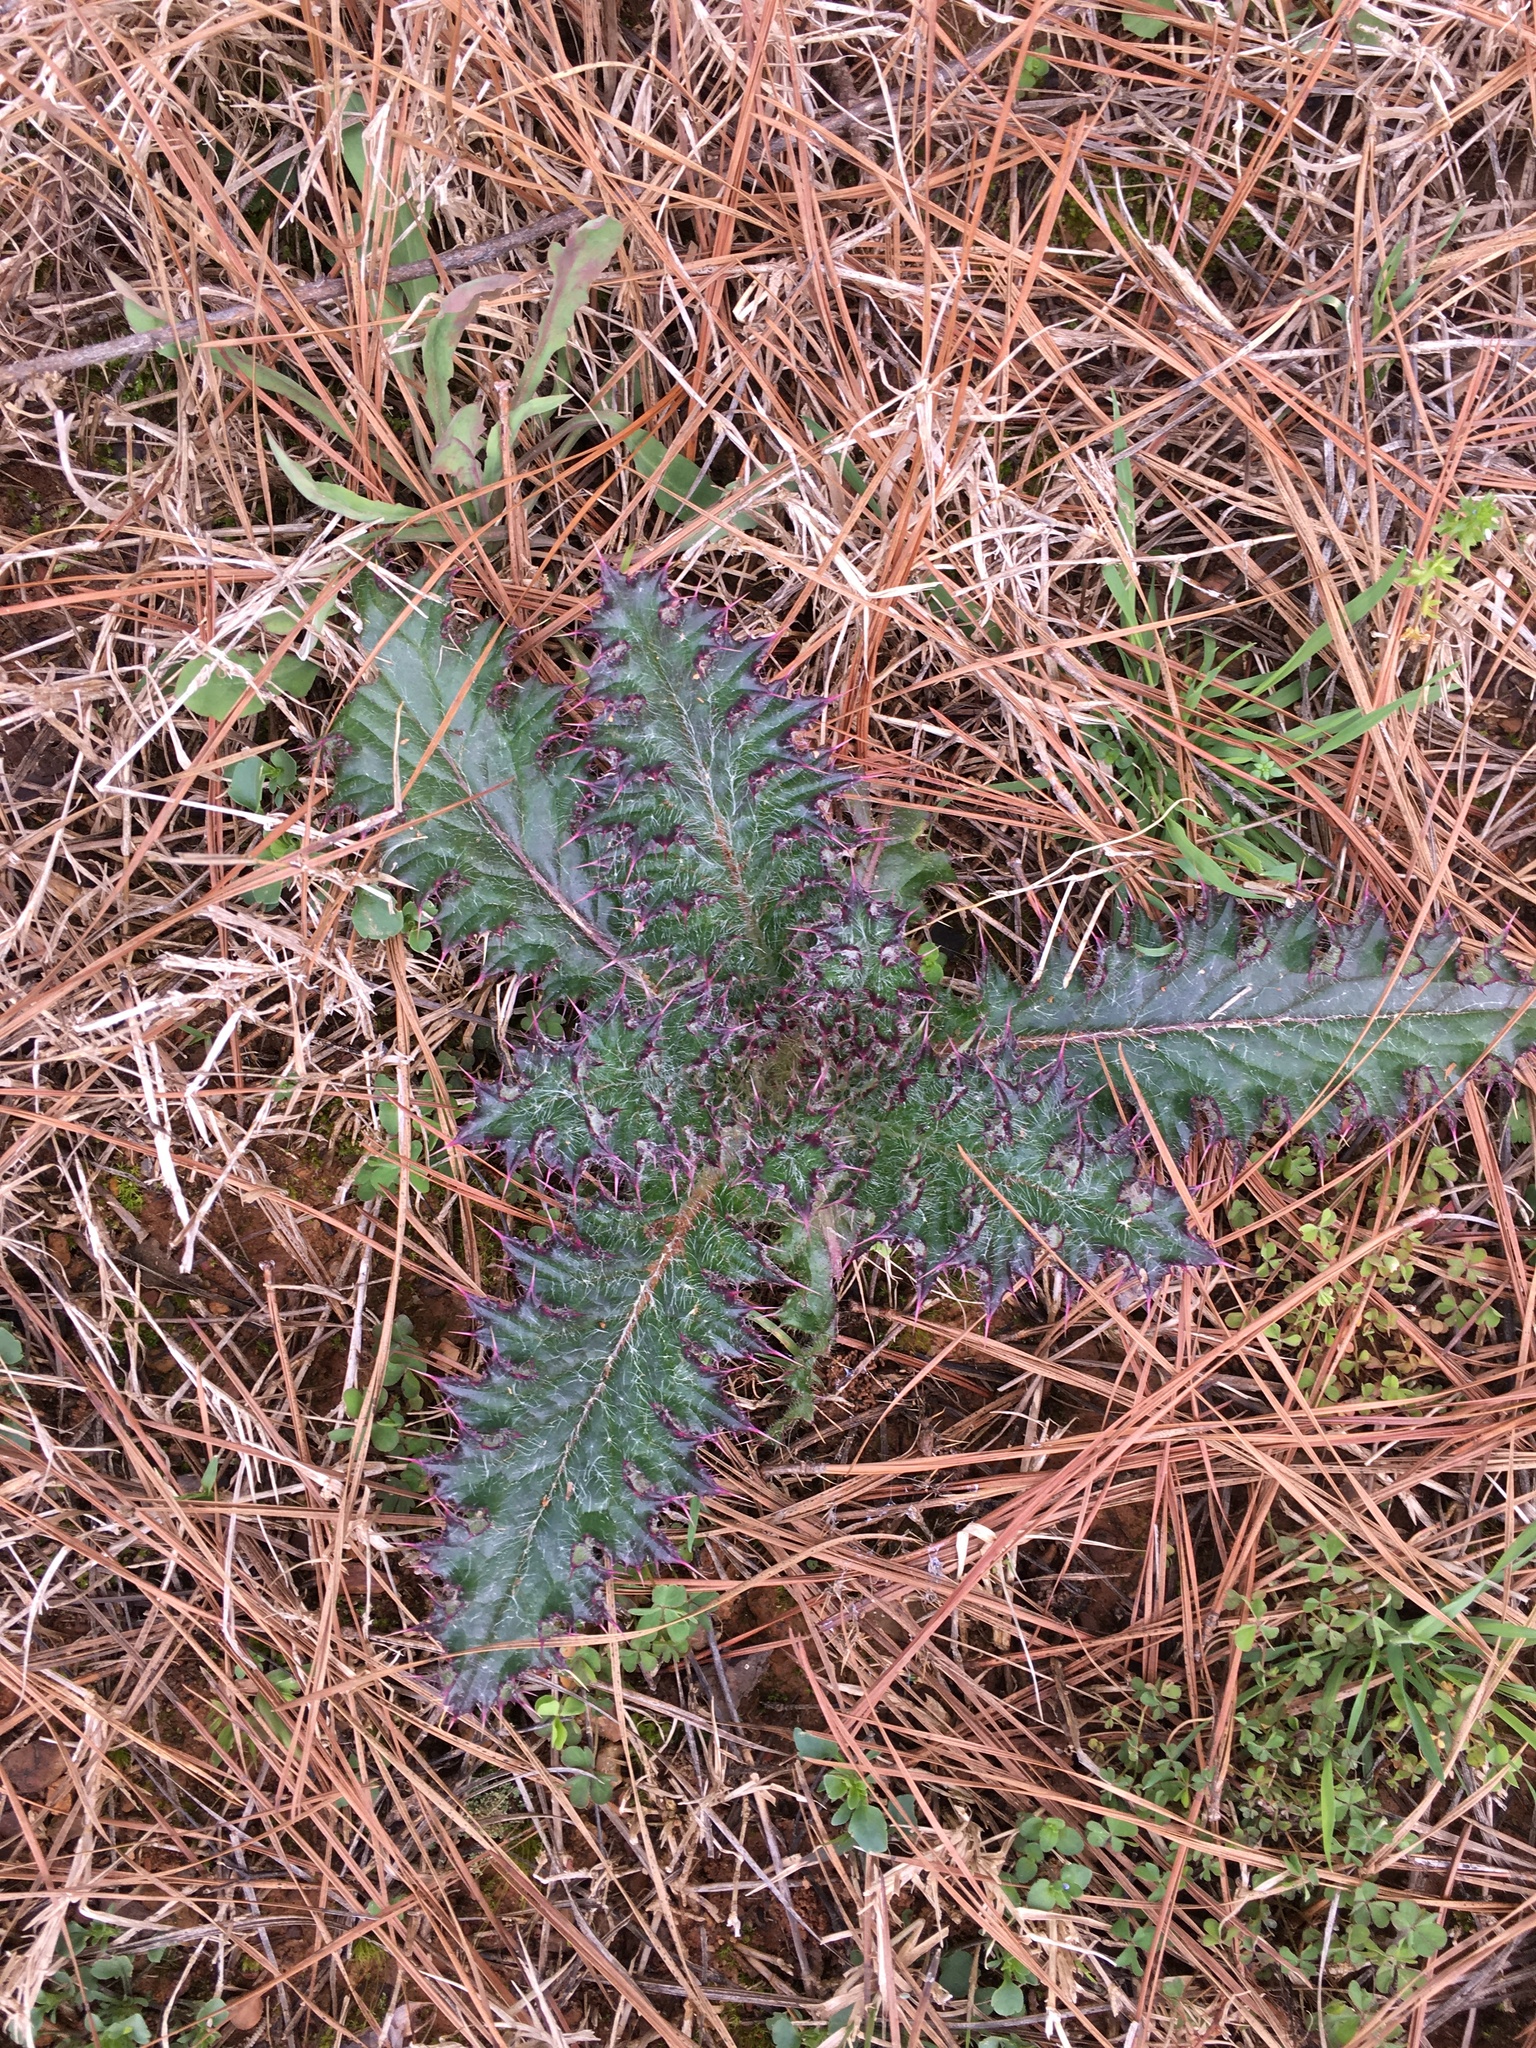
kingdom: Plantae
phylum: Tracheophyta
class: Magnoliopsida
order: Asterales
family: Asteraceae
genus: Cirsium
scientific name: Cirsium horridulum
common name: Bristly thistle
